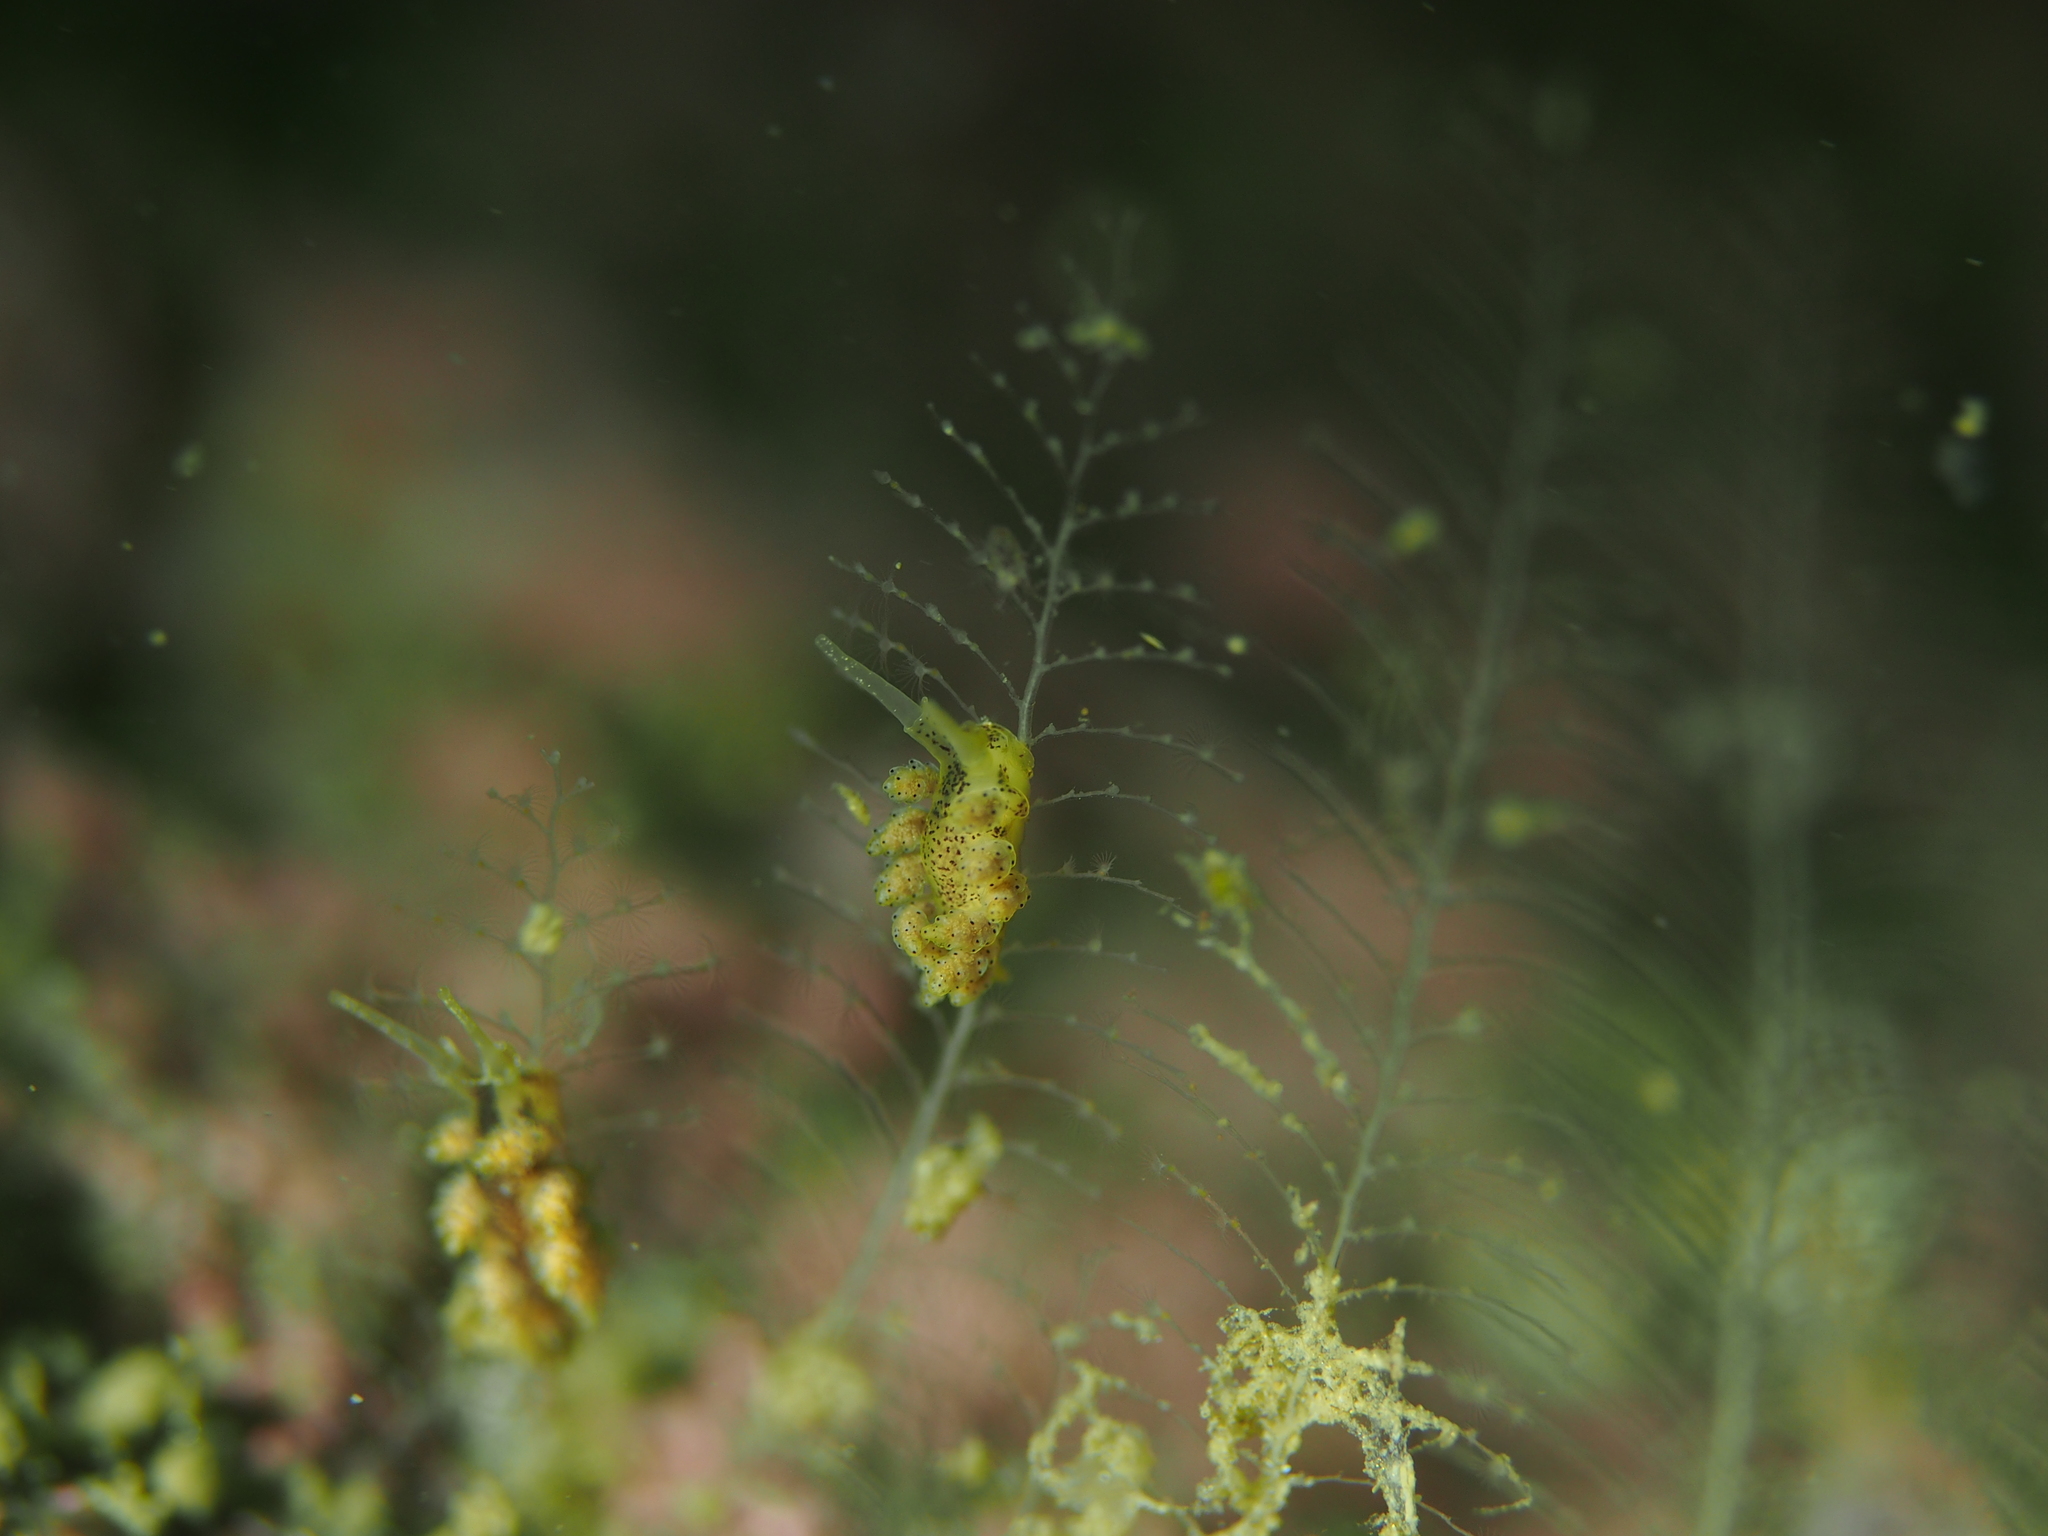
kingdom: Animalia
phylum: Mollusca
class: Gastropoda
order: Nudibranchia
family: Dotidae
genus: Doto
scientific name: Doto dunnei
